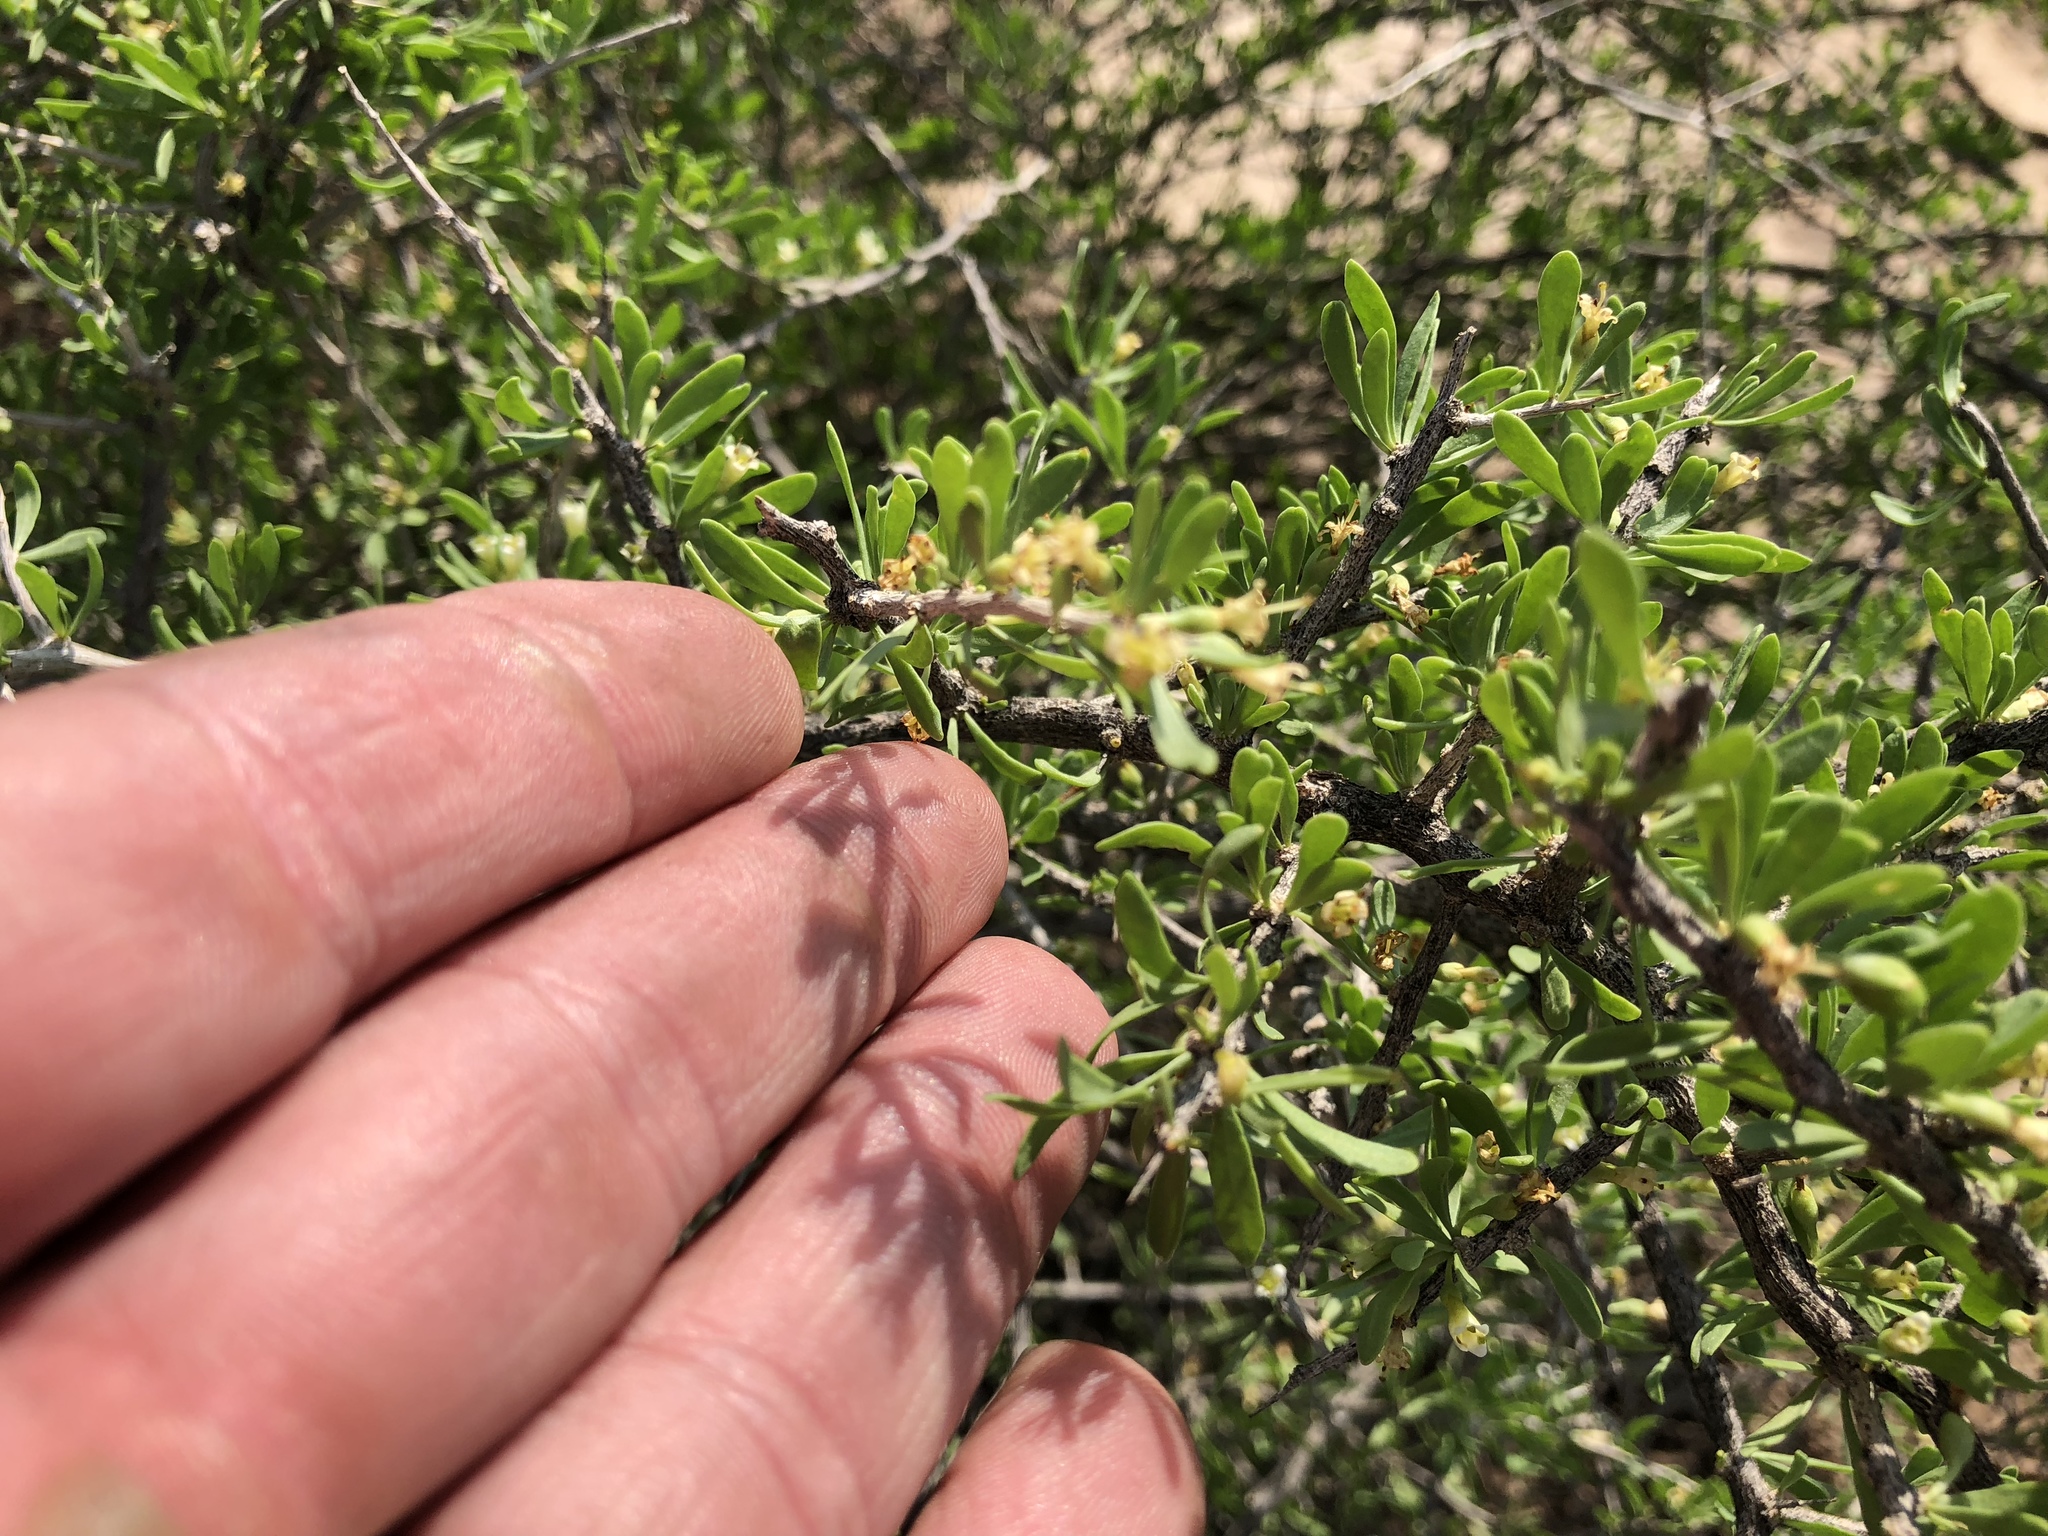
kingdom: Plantae
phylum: Tracheophyta
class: Magnoliopsida
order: Solanales
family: Solanaceae
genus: Lycium
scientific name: Lycium berlandieri
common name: Berlandier wolfberry
